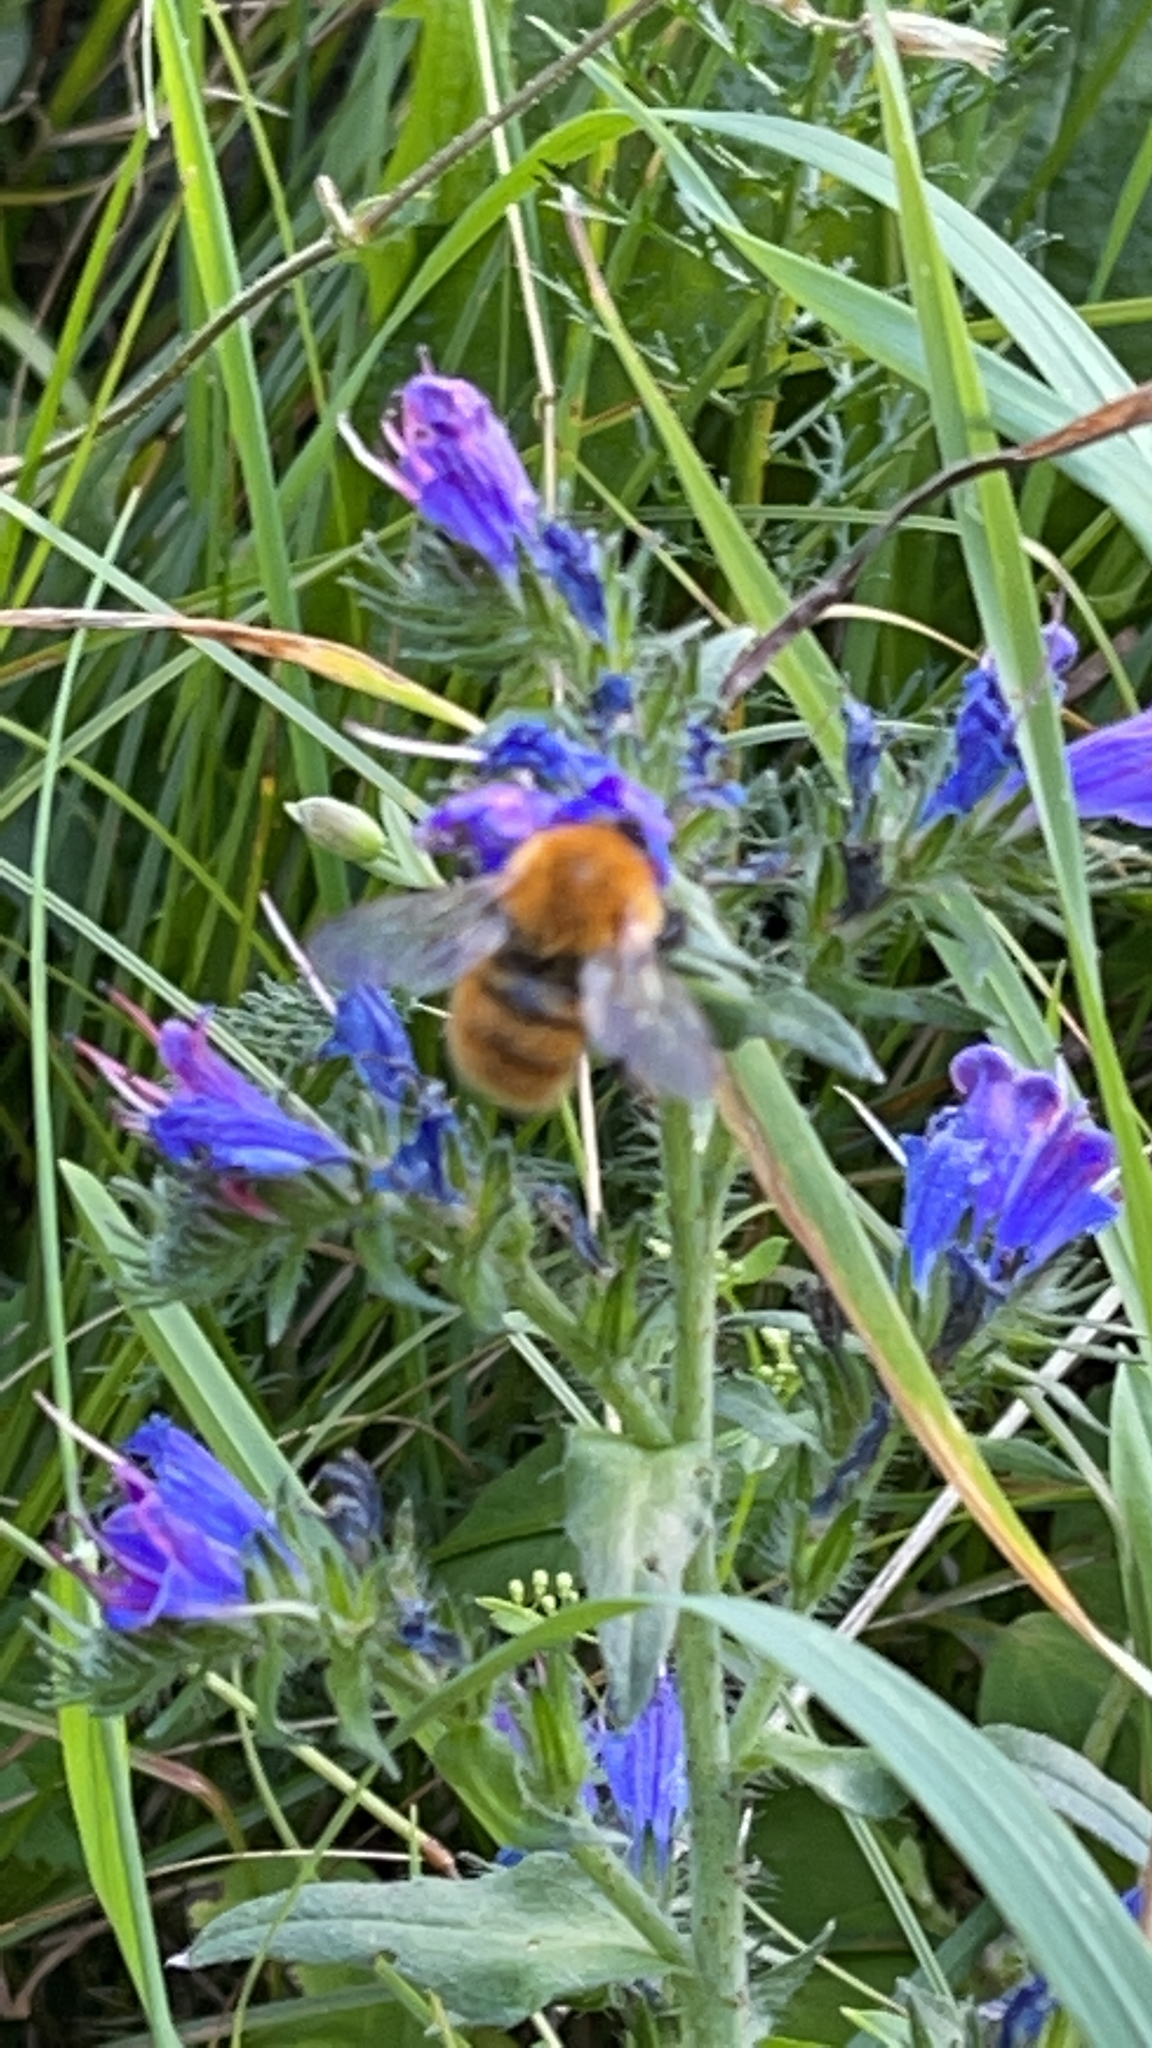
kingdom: Animalia
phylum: Arthropoda
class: Insecta
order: Hymenoptera
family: Apidae
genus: Bombus
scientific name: Bombus pascuorum
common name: Common carder bee
